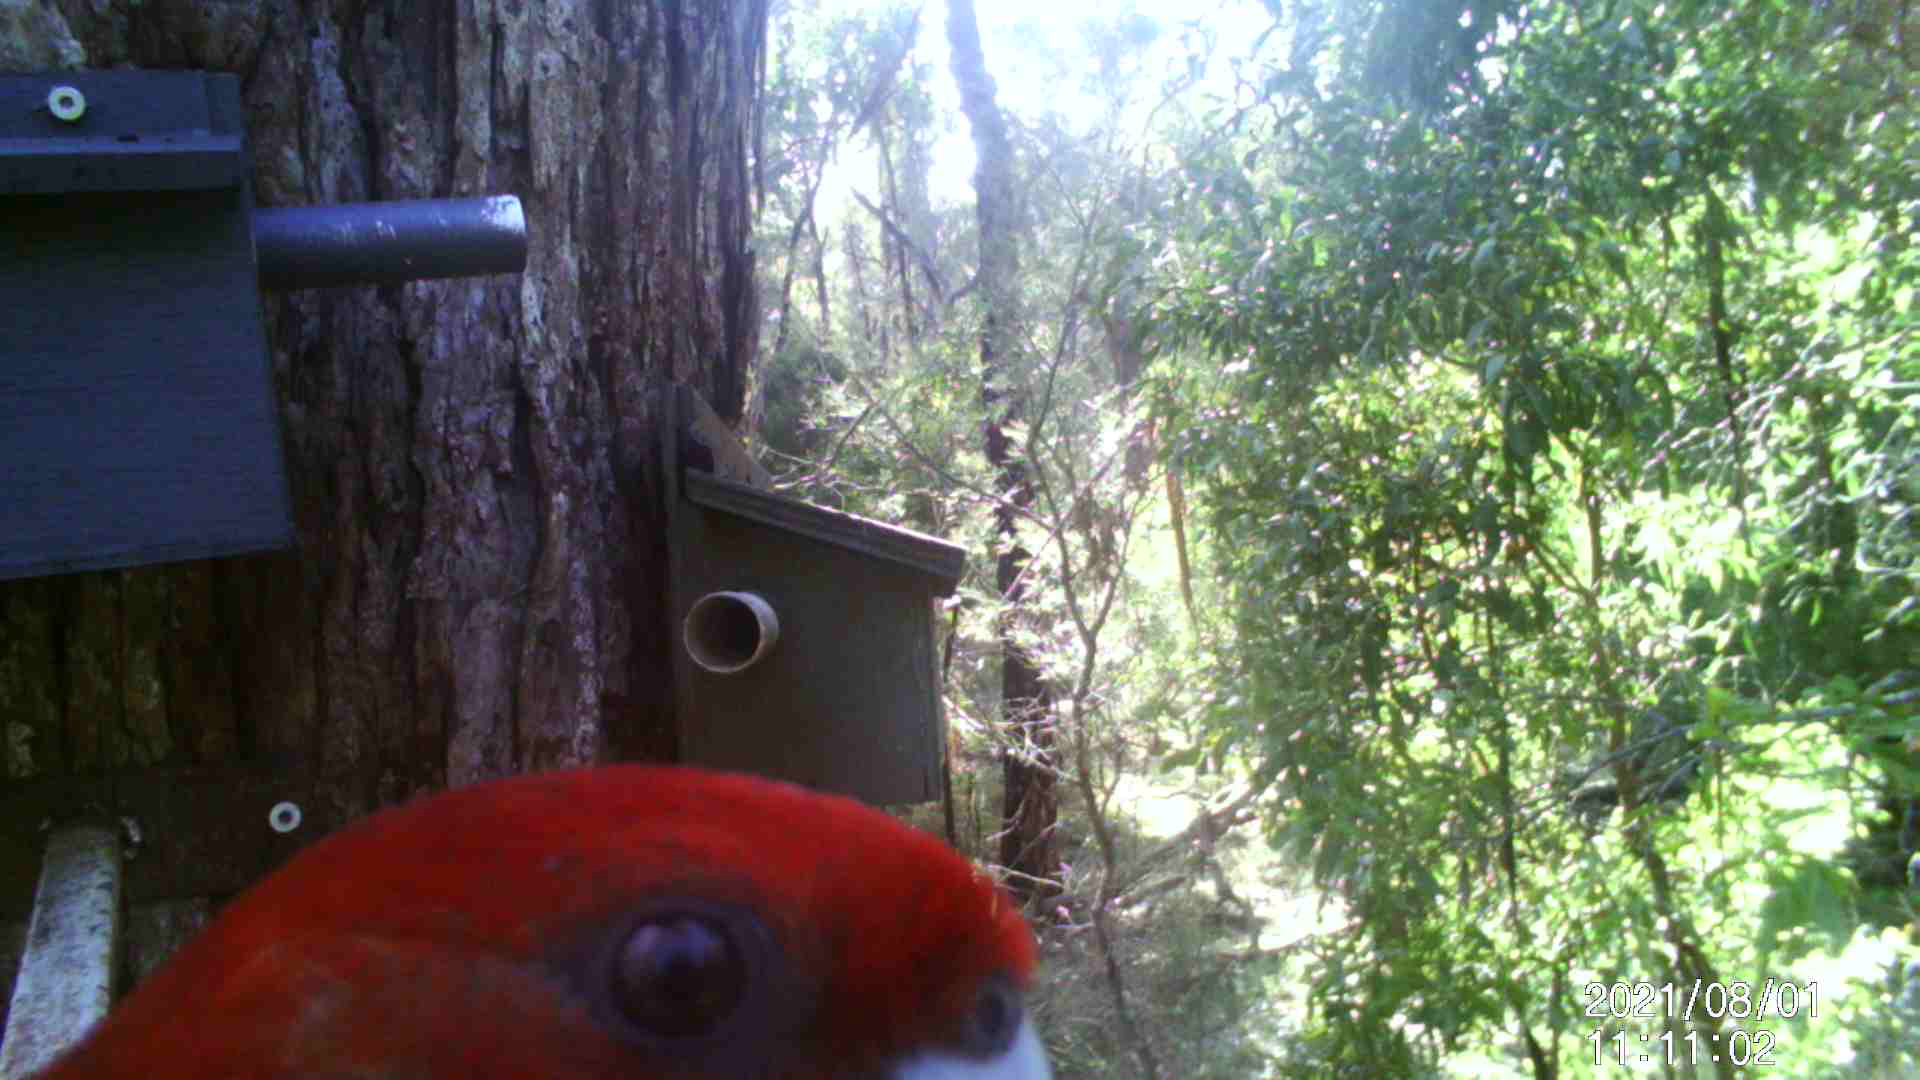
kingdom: Animalia
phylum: Chordata
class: Aves
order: Psittaciformes
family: Psittacidae
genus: Platycercus
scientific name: Platycercus elegans
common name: Crimson rosella
